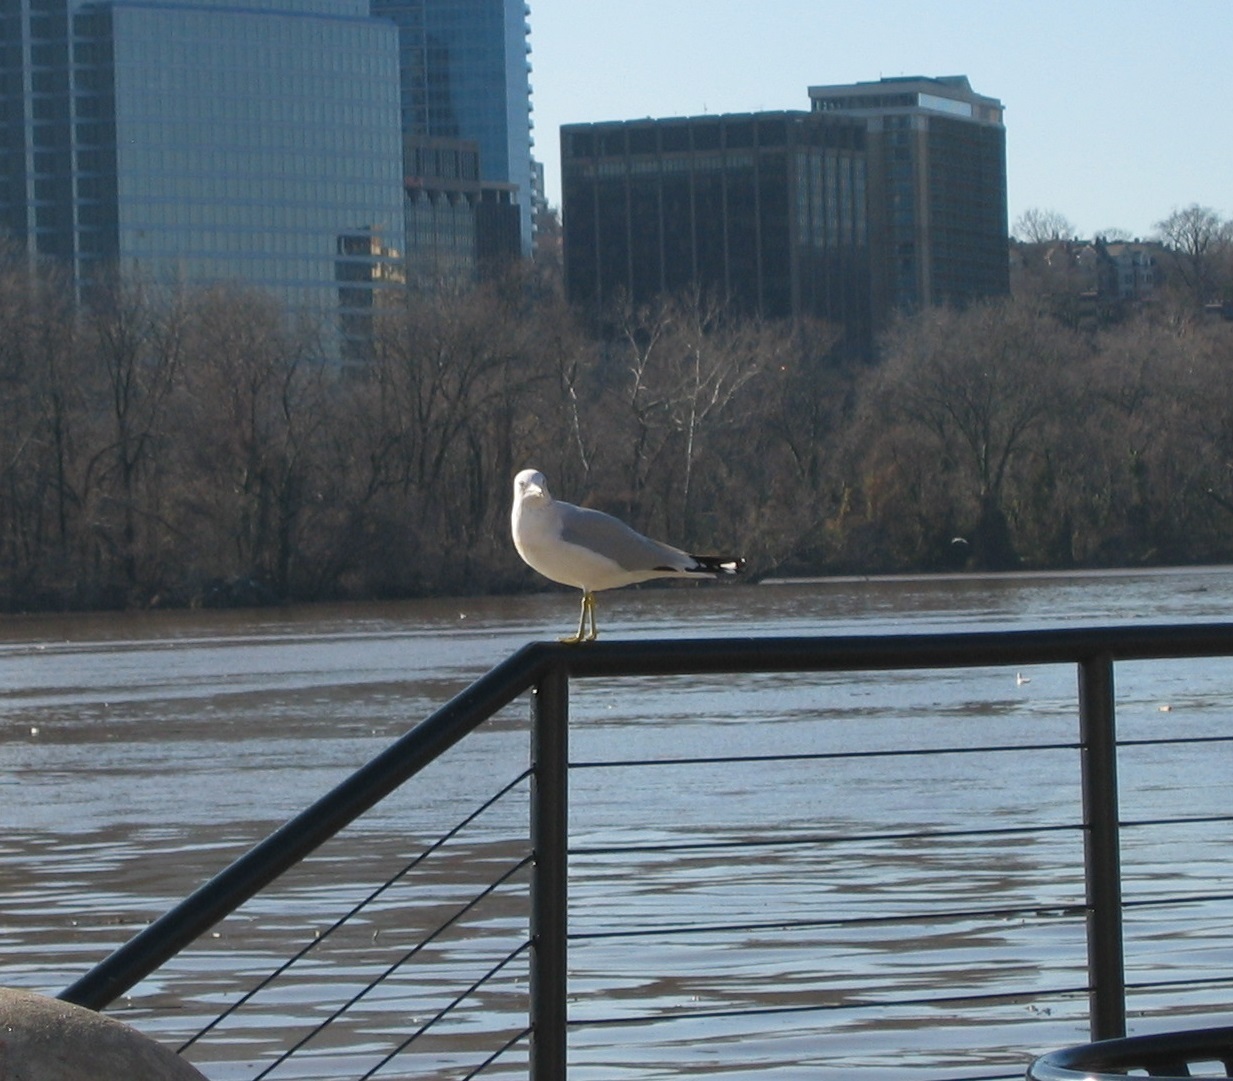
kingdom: Animalia
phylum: Chordata
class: Aves
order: Charadriiformes
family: Laridae
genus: Larus
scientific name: Larus delawarensis
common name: Ring-billed gull
